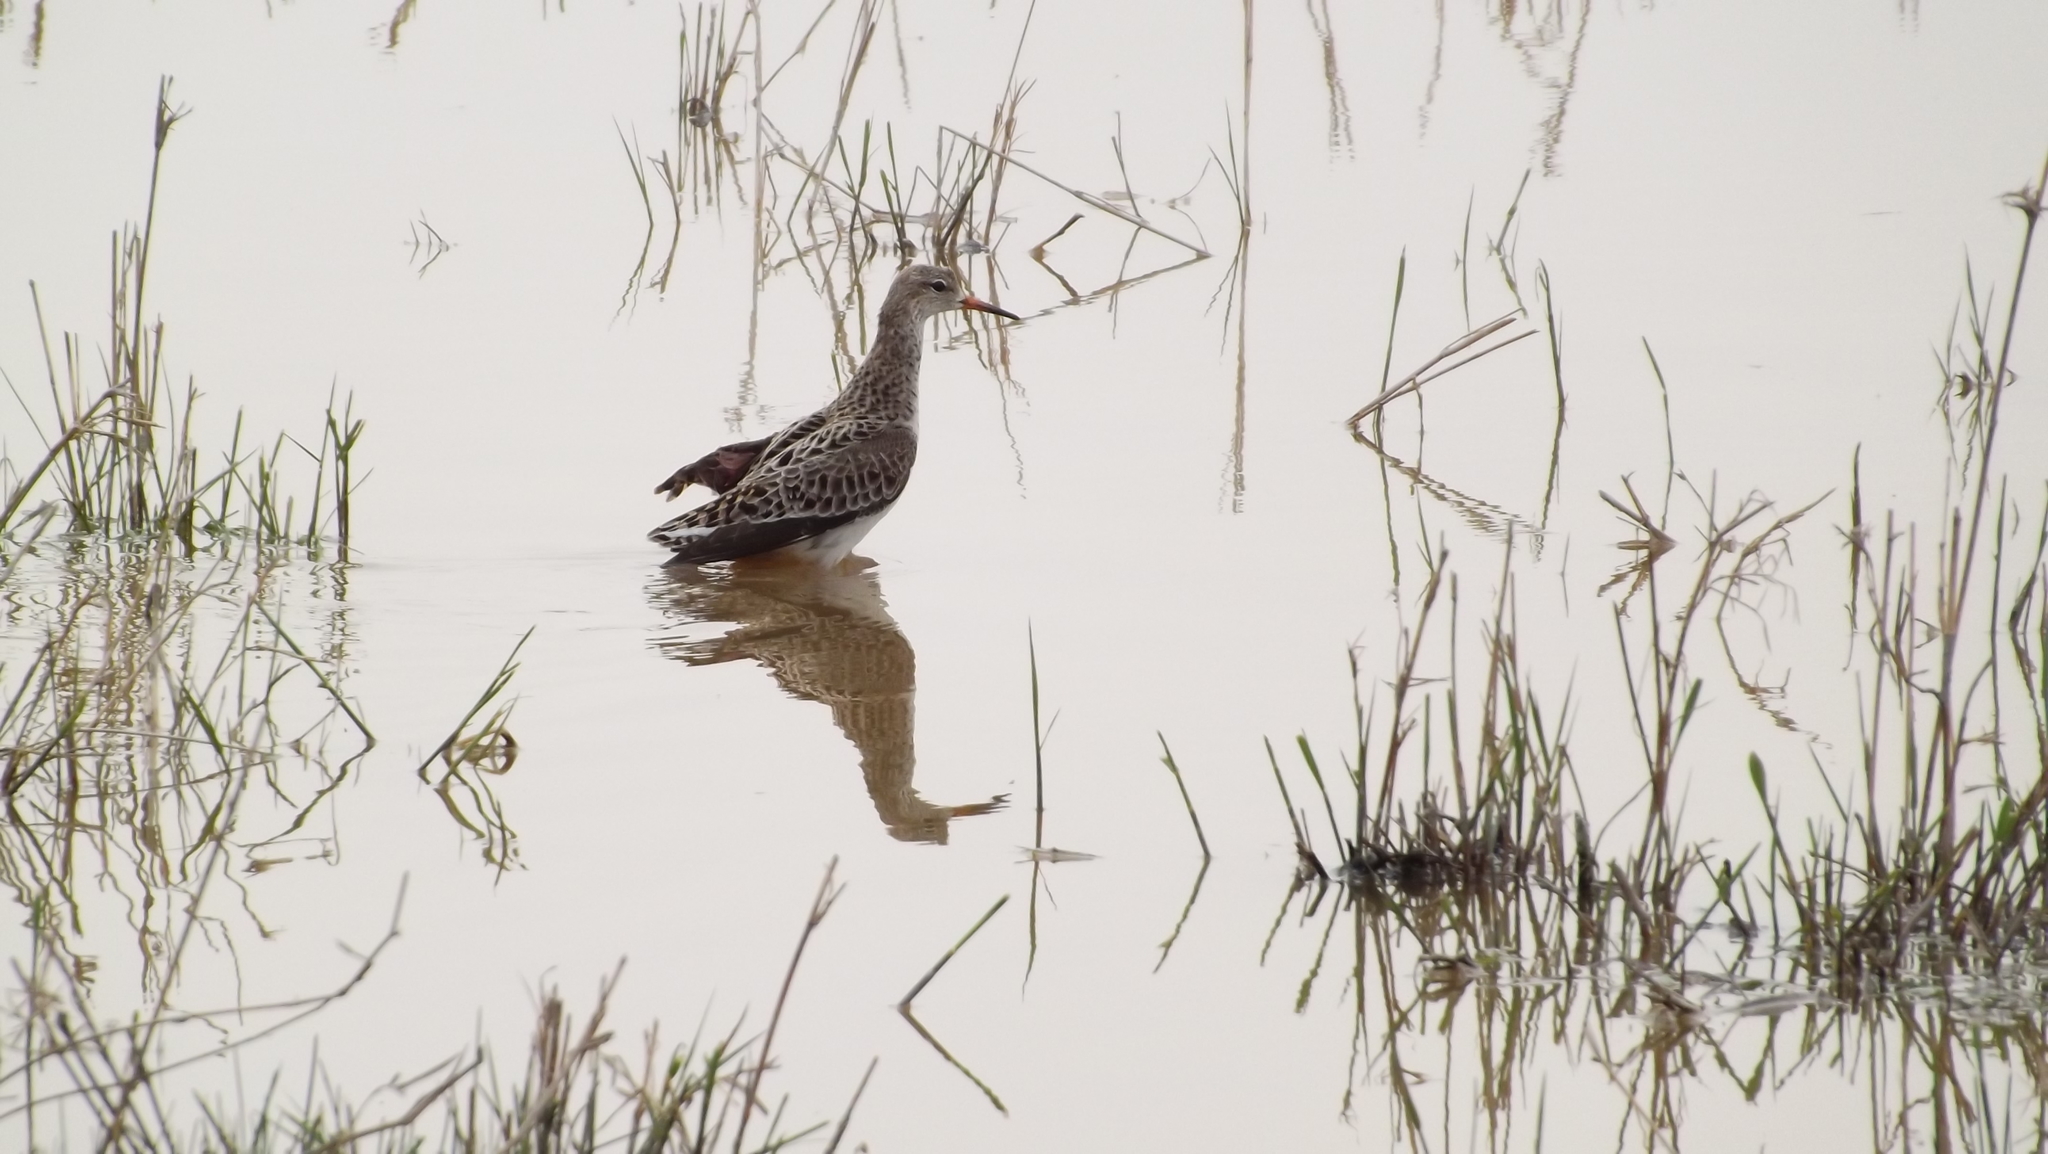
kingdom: Animalia
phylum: Chordata
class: Aves
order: Charadriiformes
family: Scolopacidae
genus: Calidris
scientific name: Calidris pugnax
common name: Ruff
